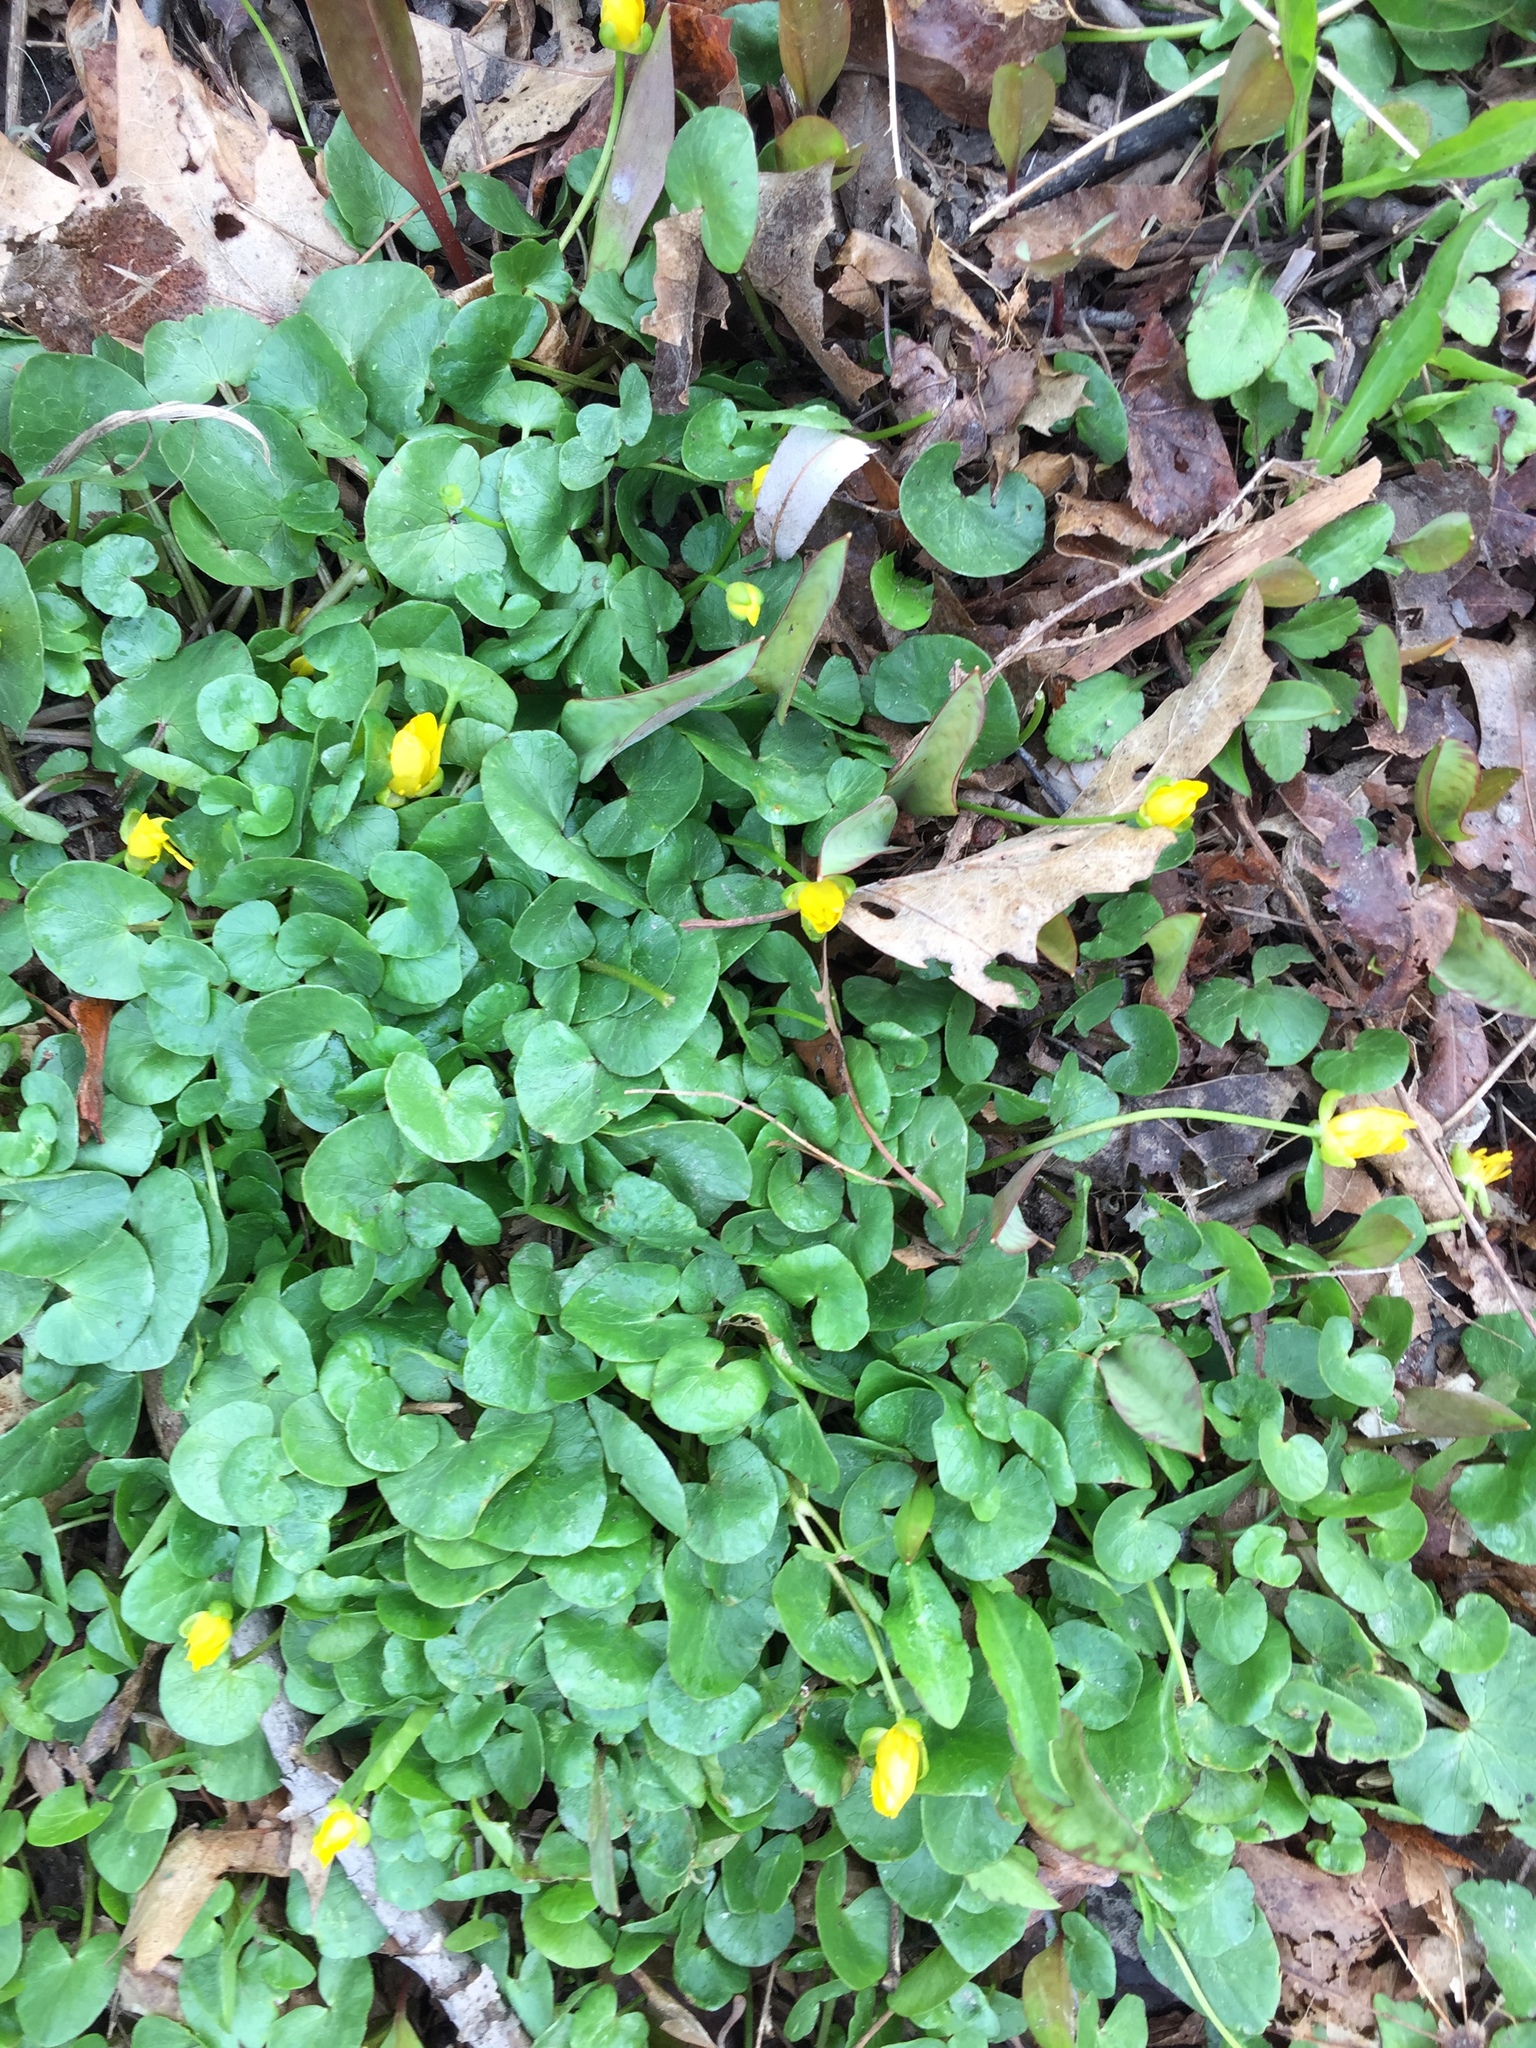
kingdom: Plantae
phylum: Tracheophyta
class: Magnoliopsida
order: Ranunculales
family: Ranunculaceae
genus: Ficaria
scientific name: Ficaria verna
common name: Lesser celandine
